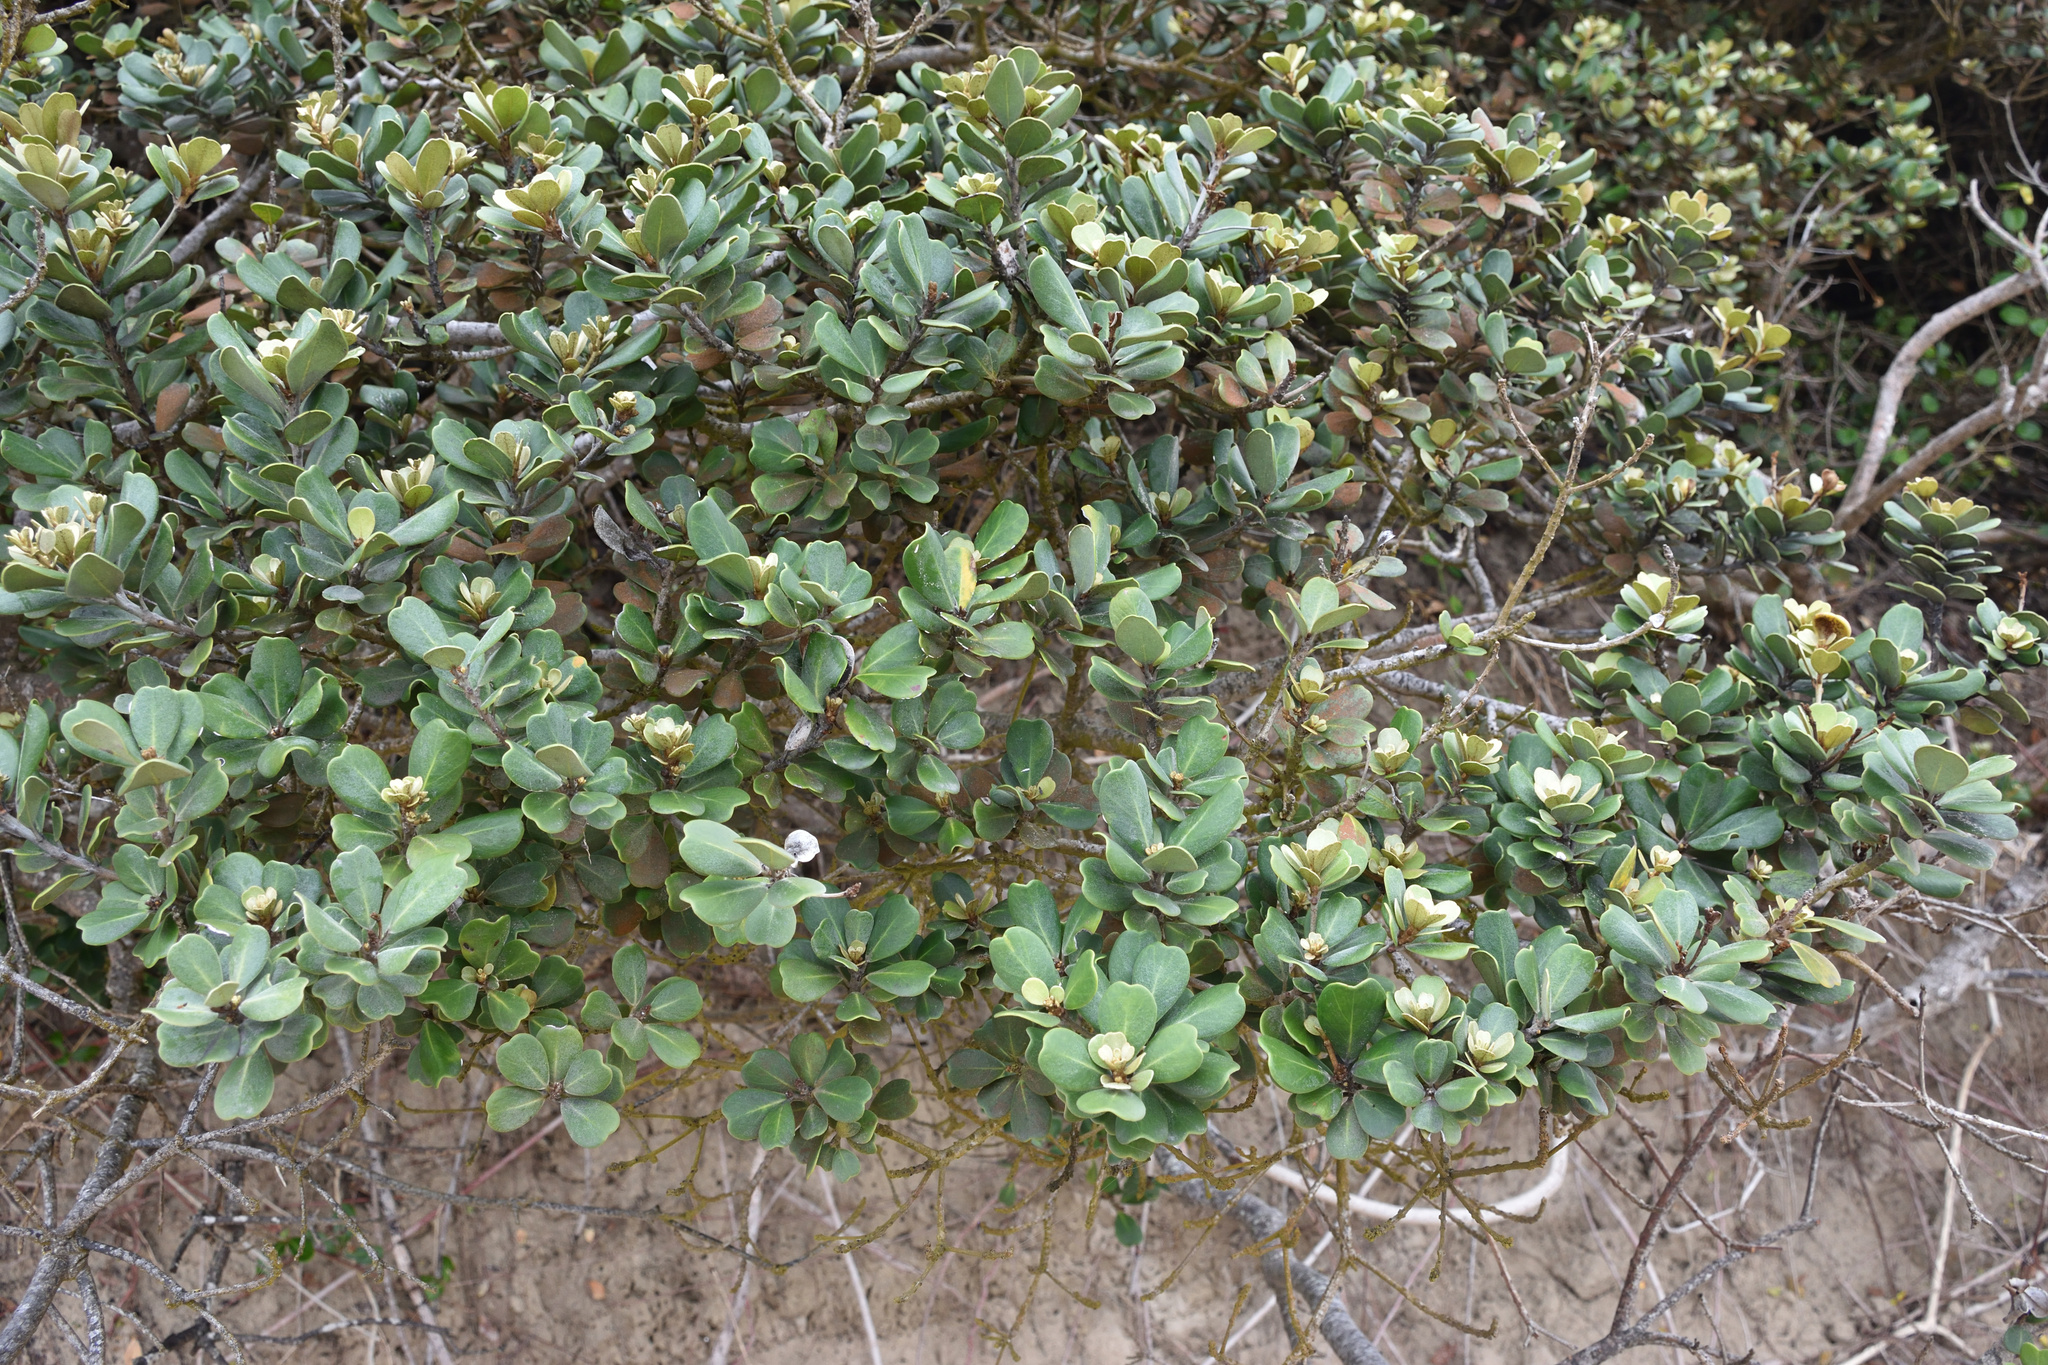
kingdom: Plantae
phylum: Tracheophyta
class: Magnoliopsida
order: Ericales
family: Sapotaceae
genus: Mimusops
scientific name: Mimusops caffra
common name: Coastal red milkwood
